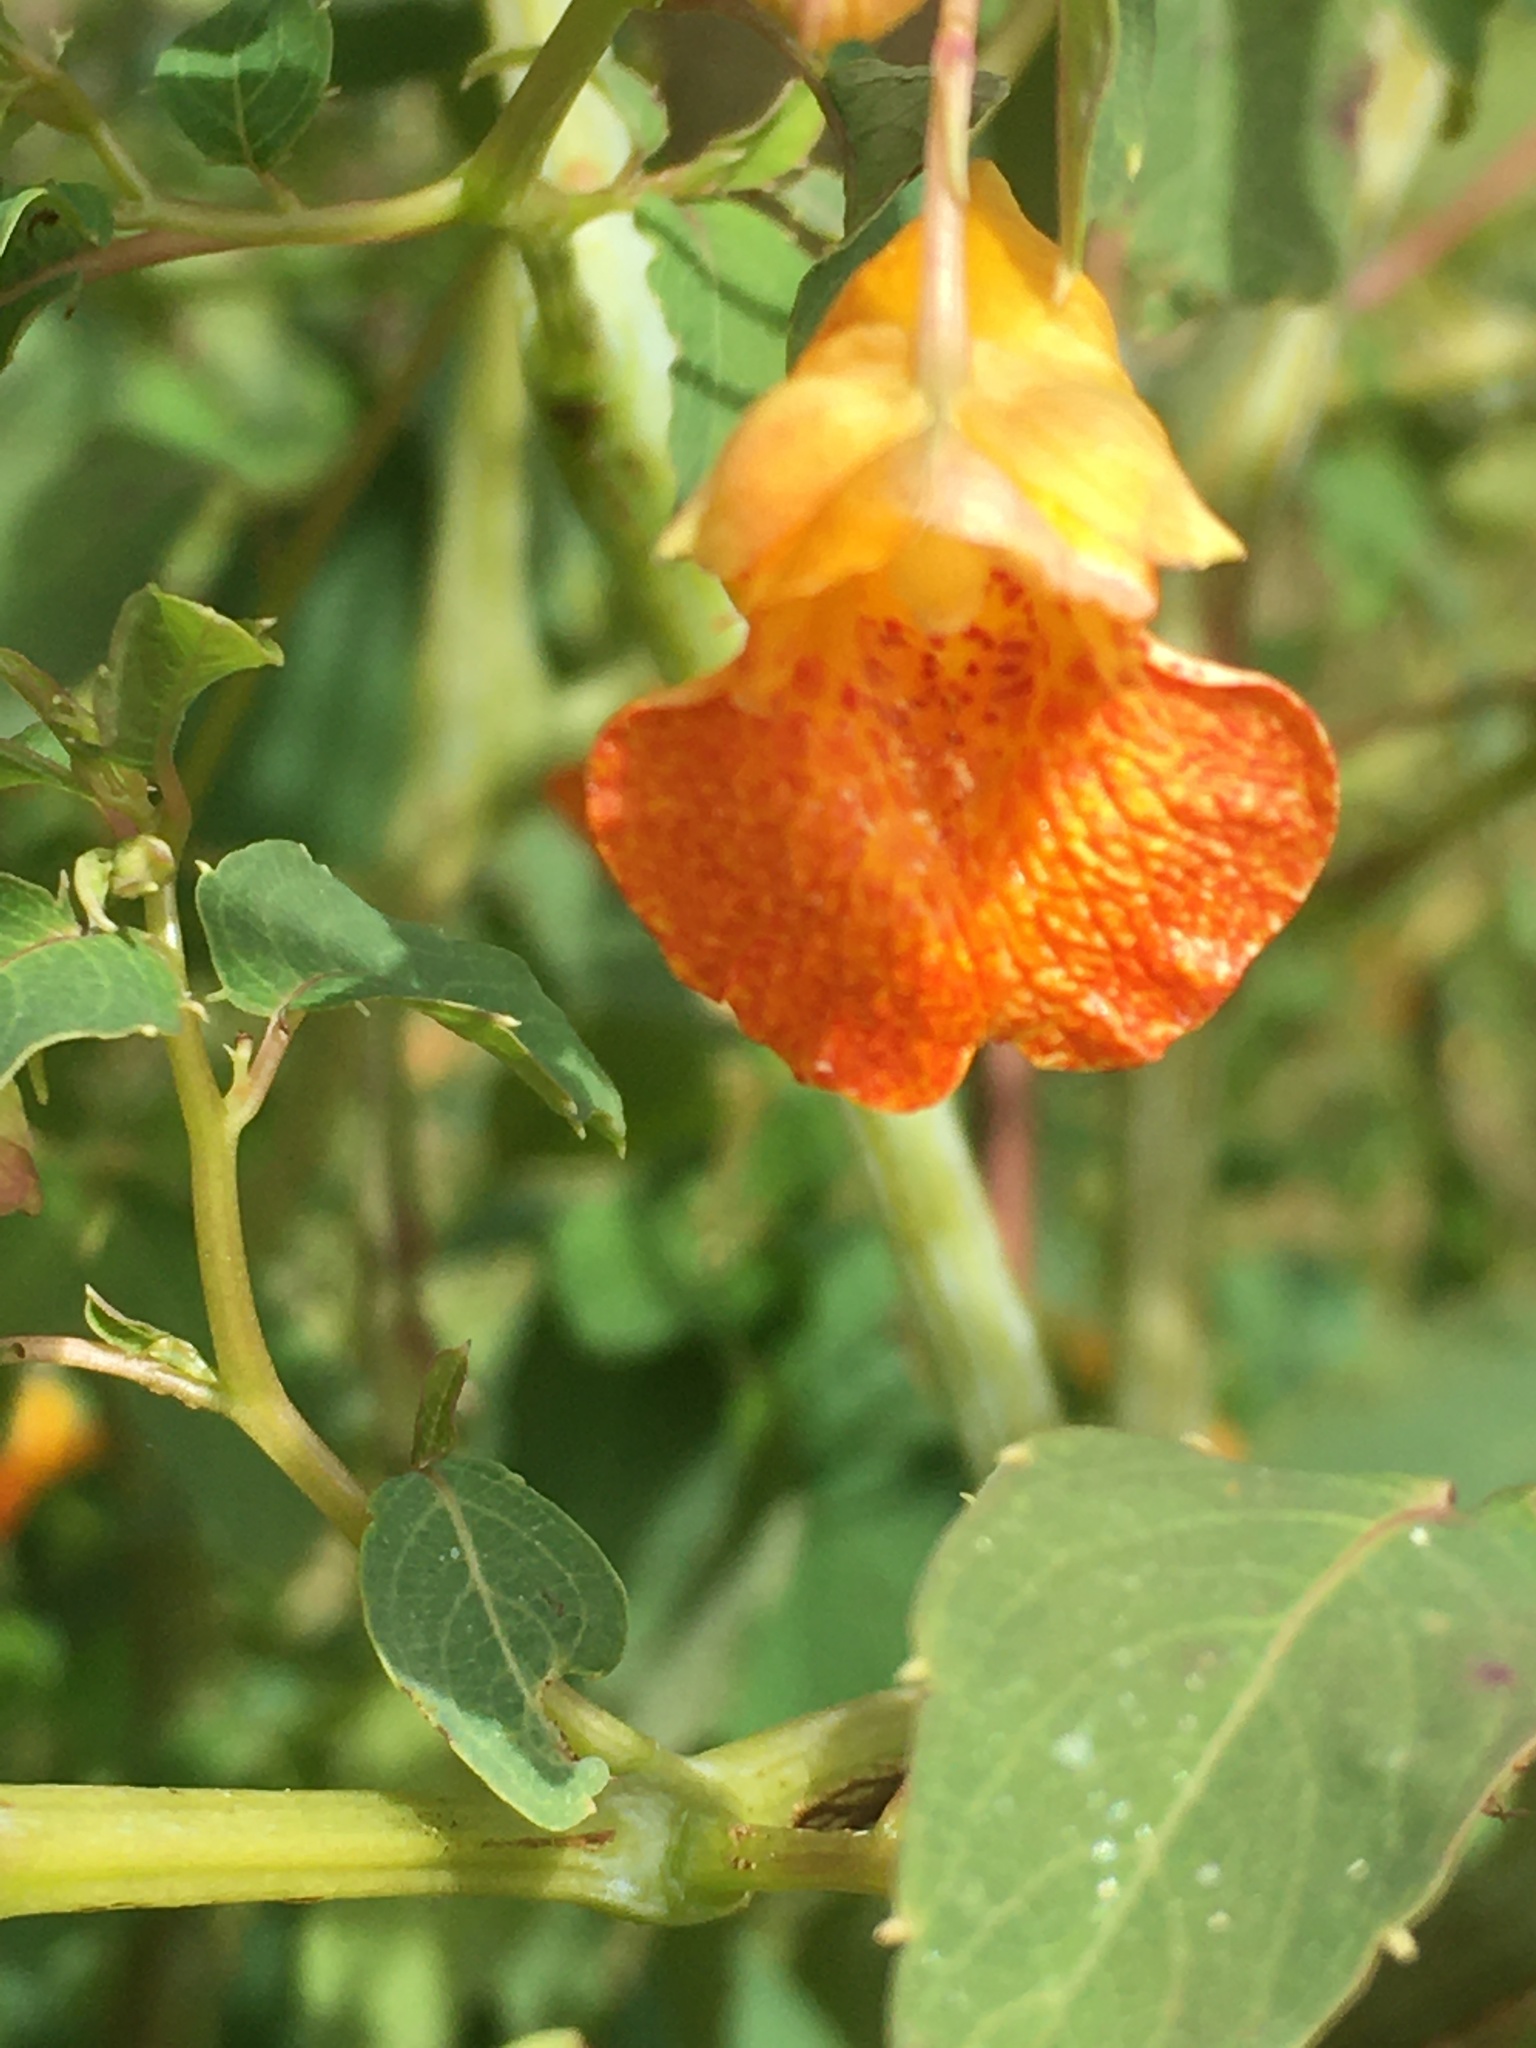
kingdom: Plantae
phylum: Tracheophyta
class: Magnoliopsida
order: Ericales
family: Balsaminaceae
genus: Impatiens
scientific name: Impatiens capensis
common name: Orange balsam
